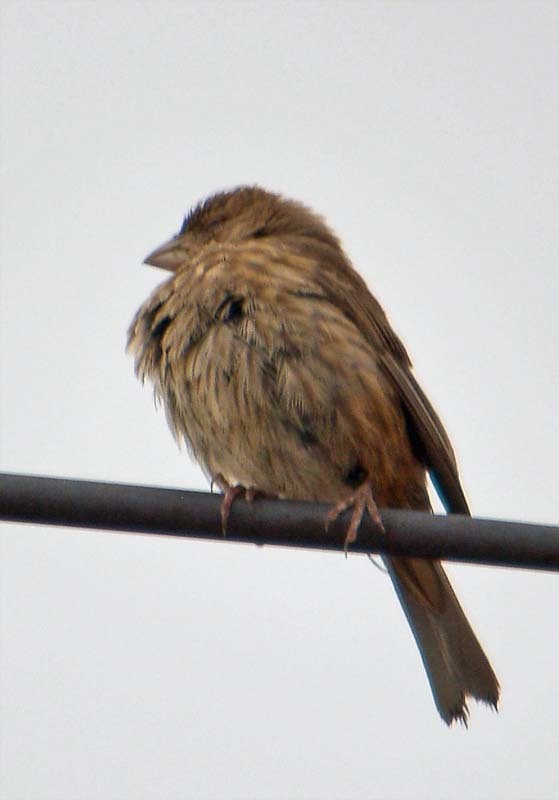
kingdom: Animalia
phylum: Chordata
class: Aves
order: Passeriformes
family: Fringillidae
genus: Haemorhous
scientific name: Haemorhous mexicanus
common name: House finch
